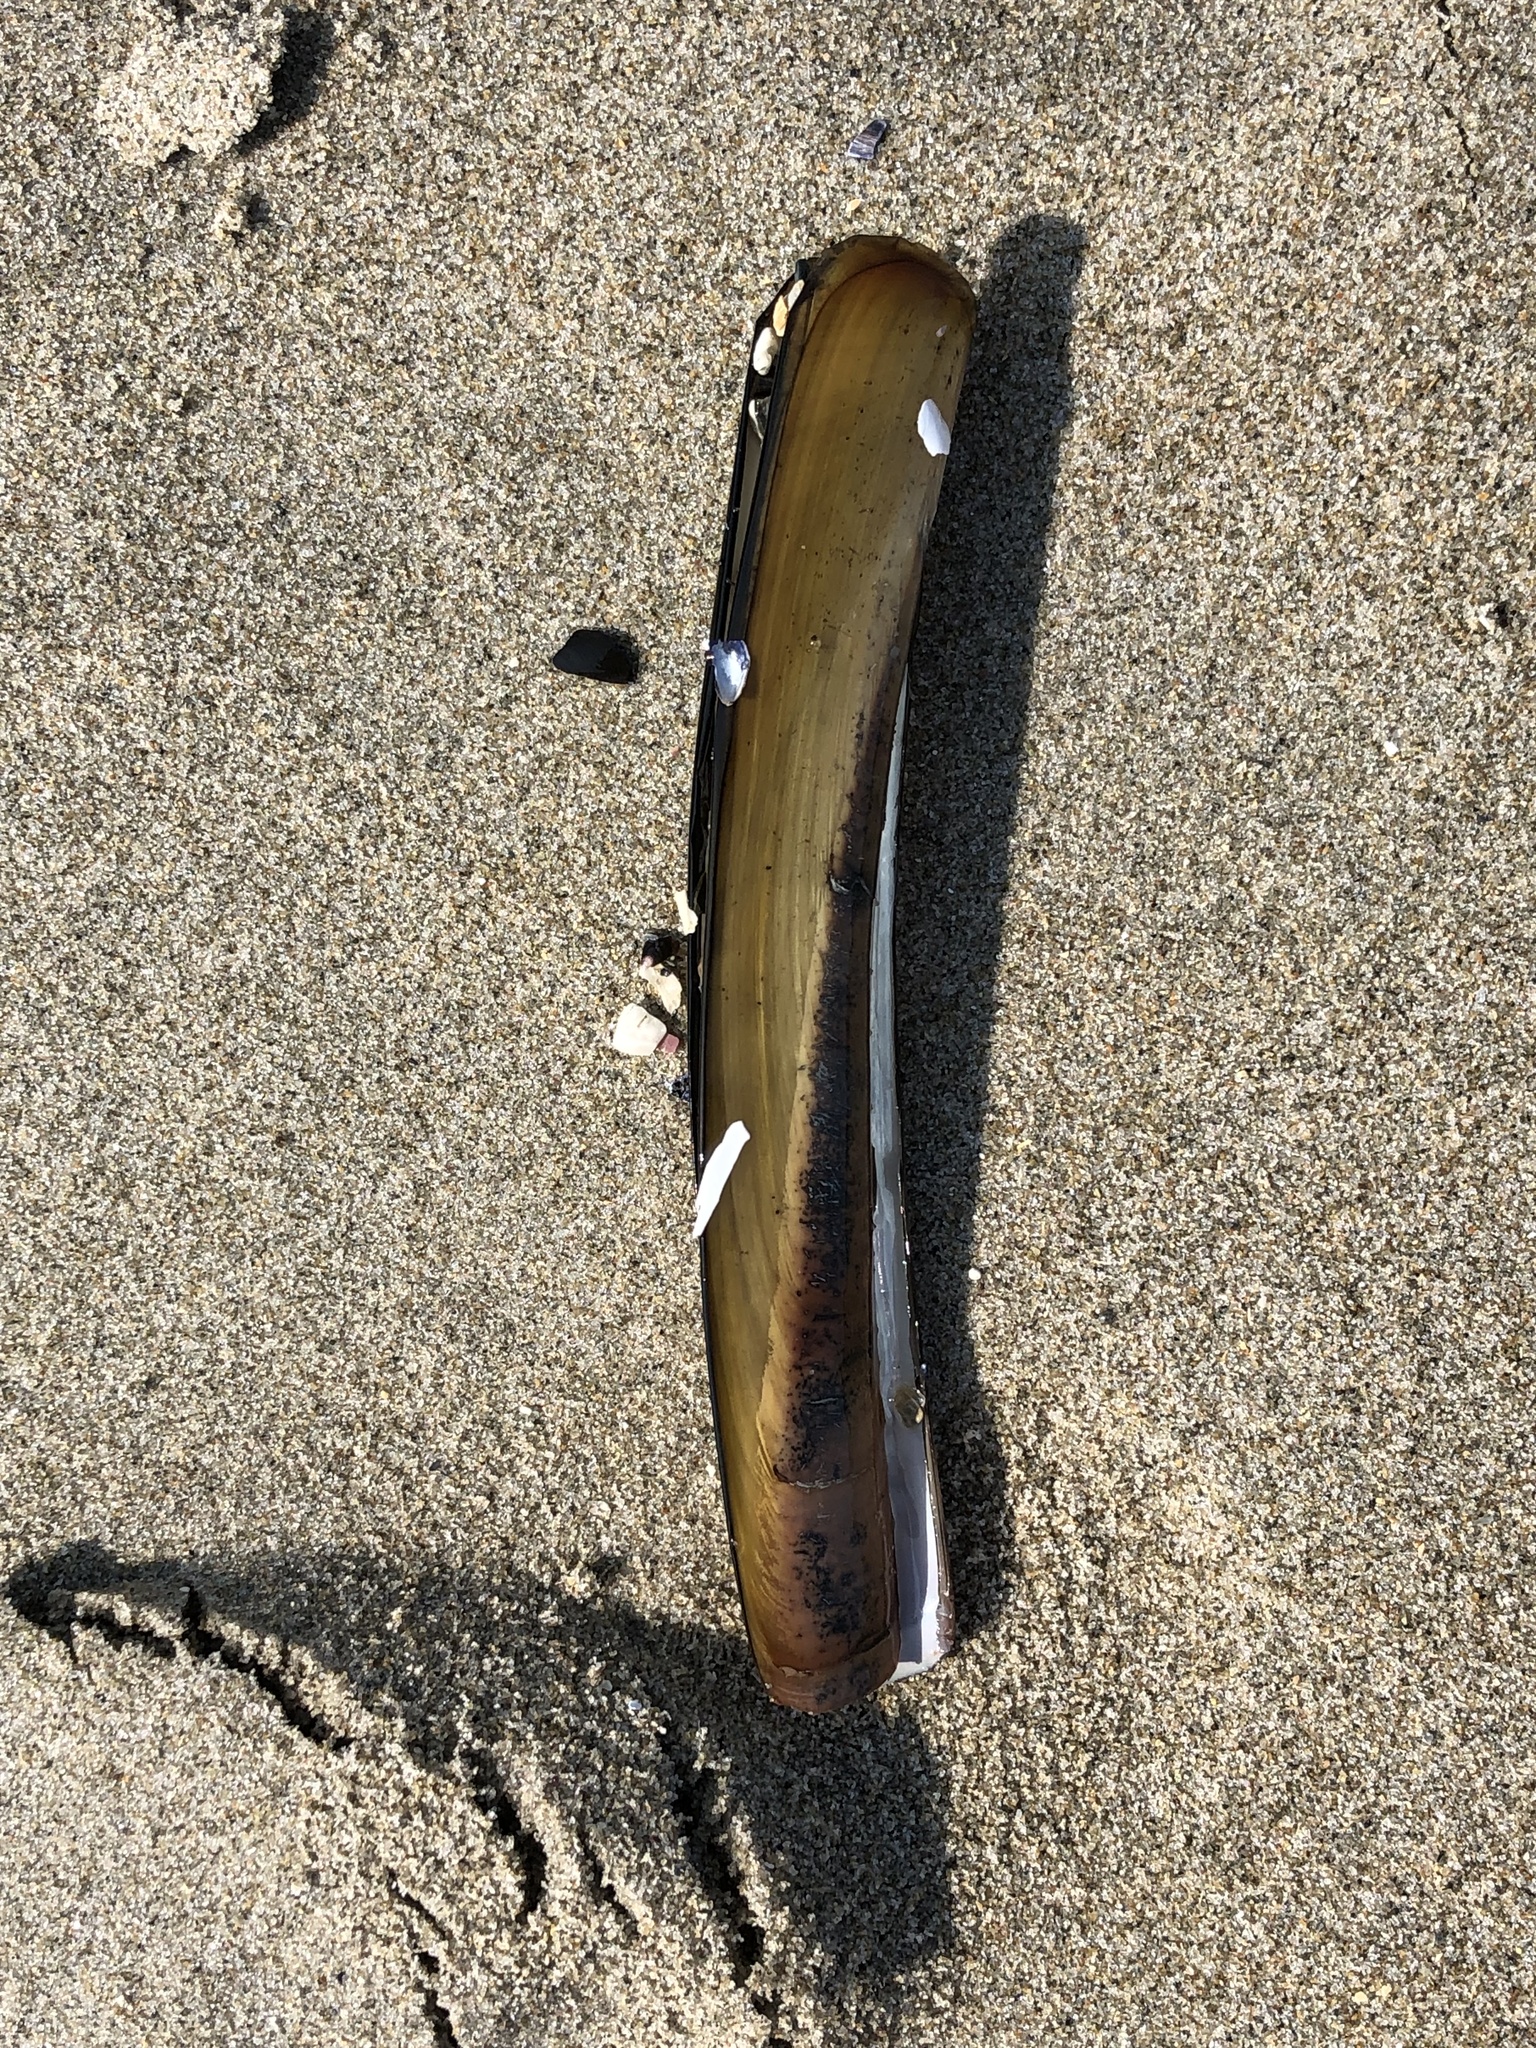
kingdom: Animalia
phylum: Mollusca
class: Bivalvia
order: Adapedonta
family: Pharidae
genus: Ensis
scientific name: Ensis leei
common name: American jack knife clam
